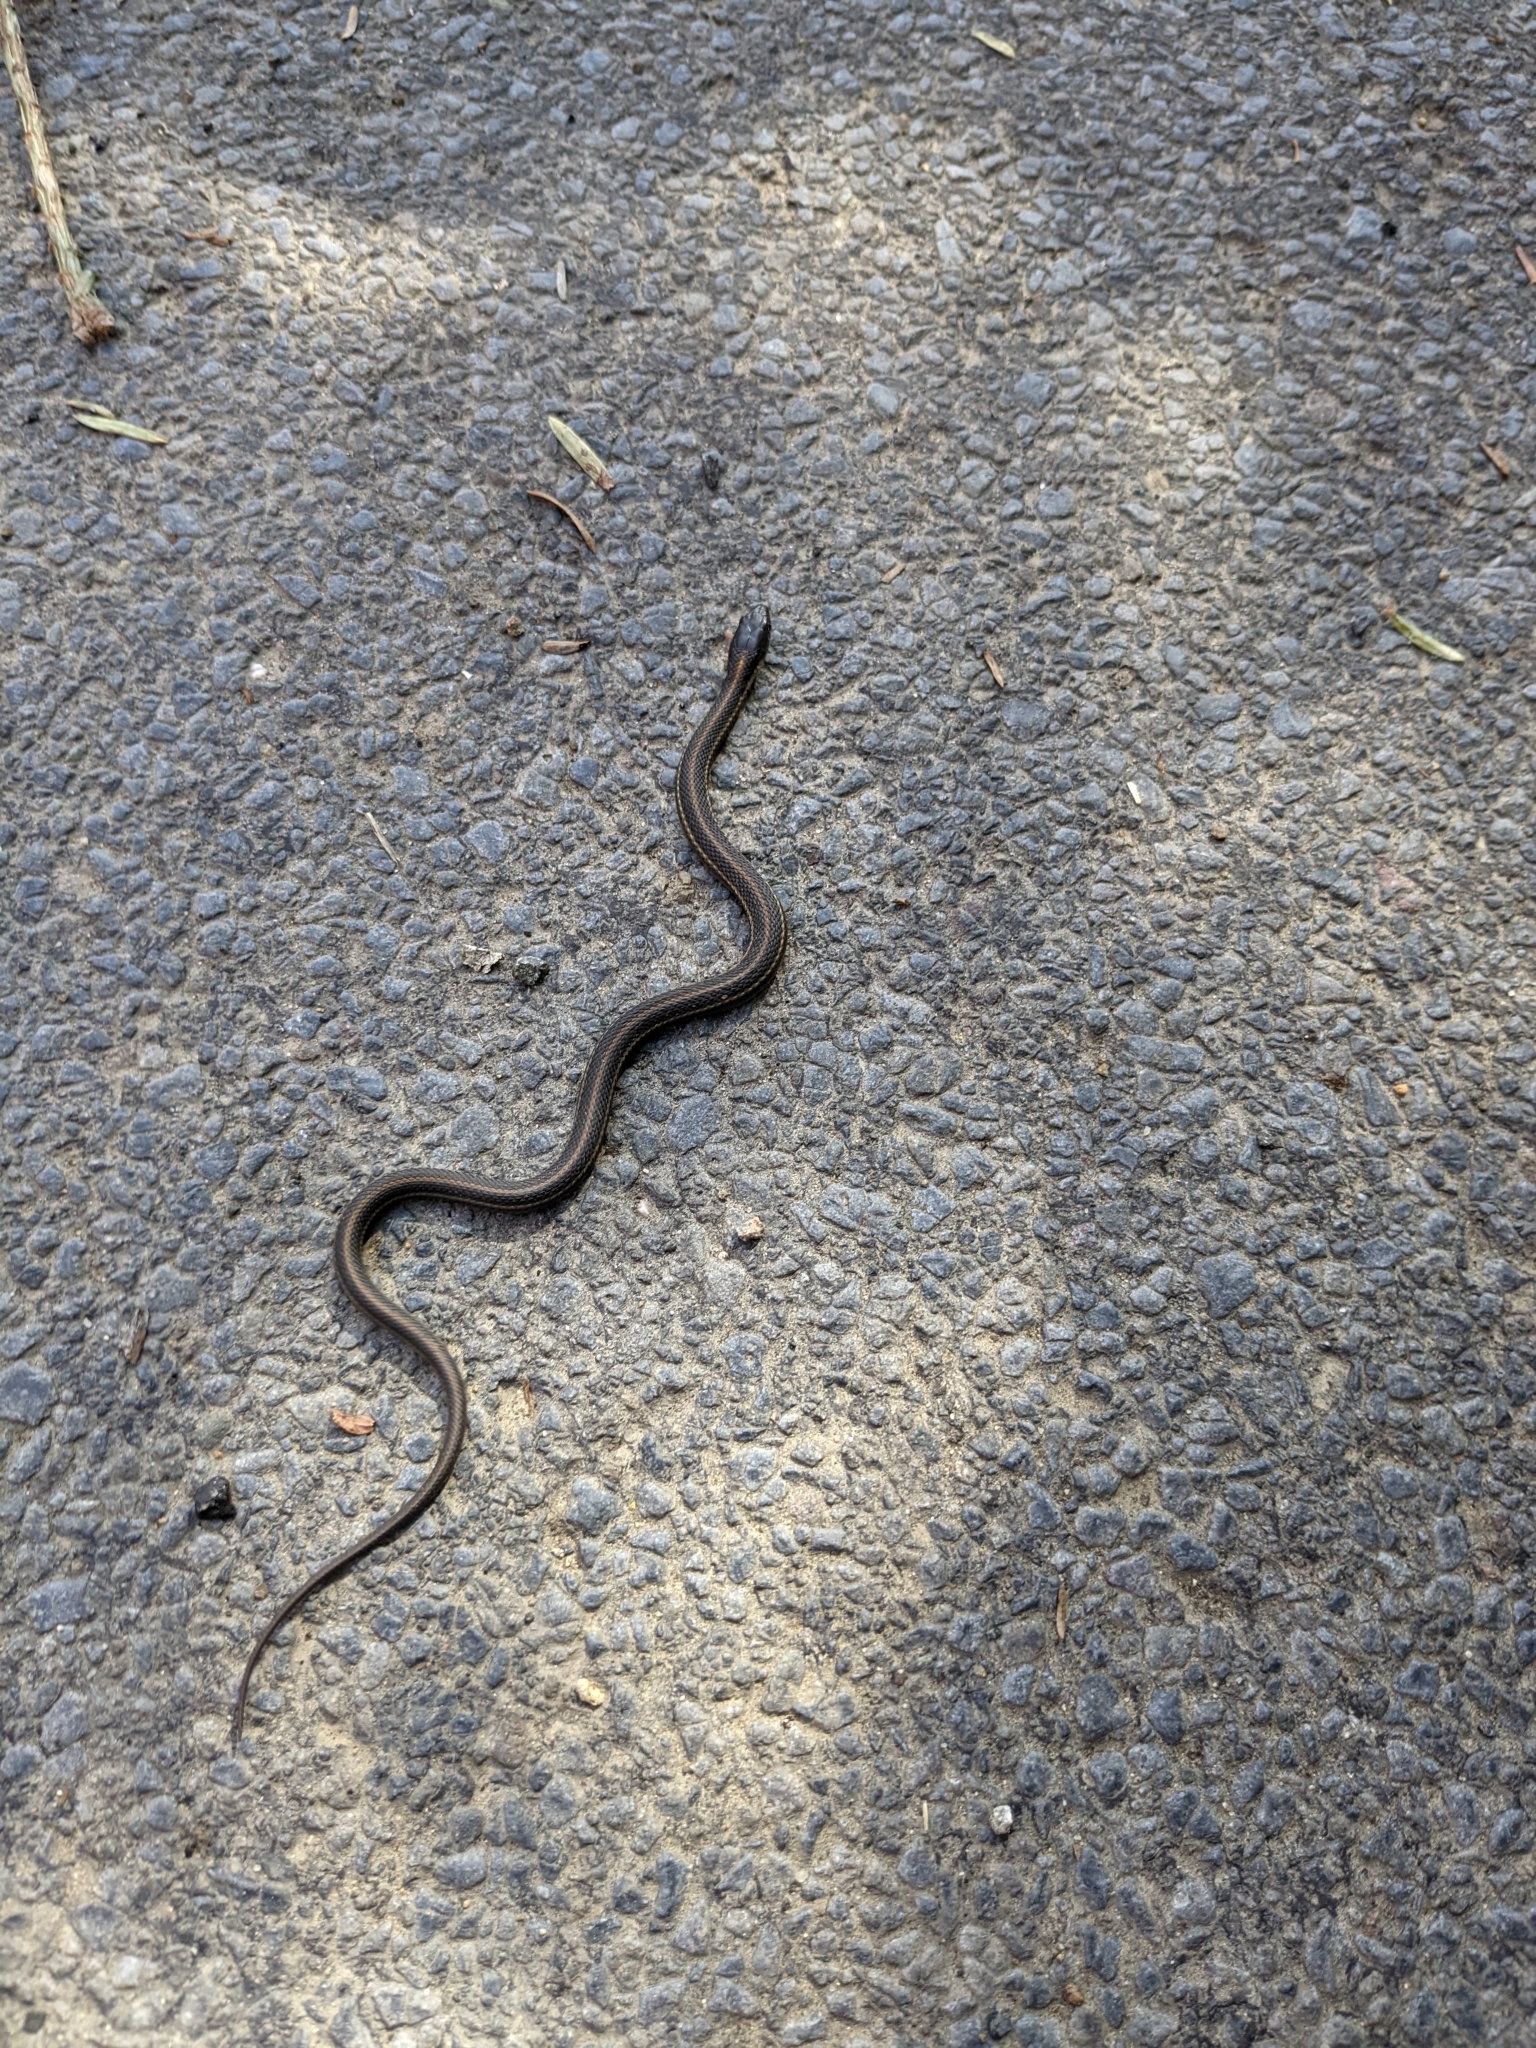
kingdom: Animalia
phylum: Chordata
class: Squamata
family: Colubridae
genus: Thamnophis
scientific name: Thamnophis atratus
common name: Pacific coast aquatic garter snake
